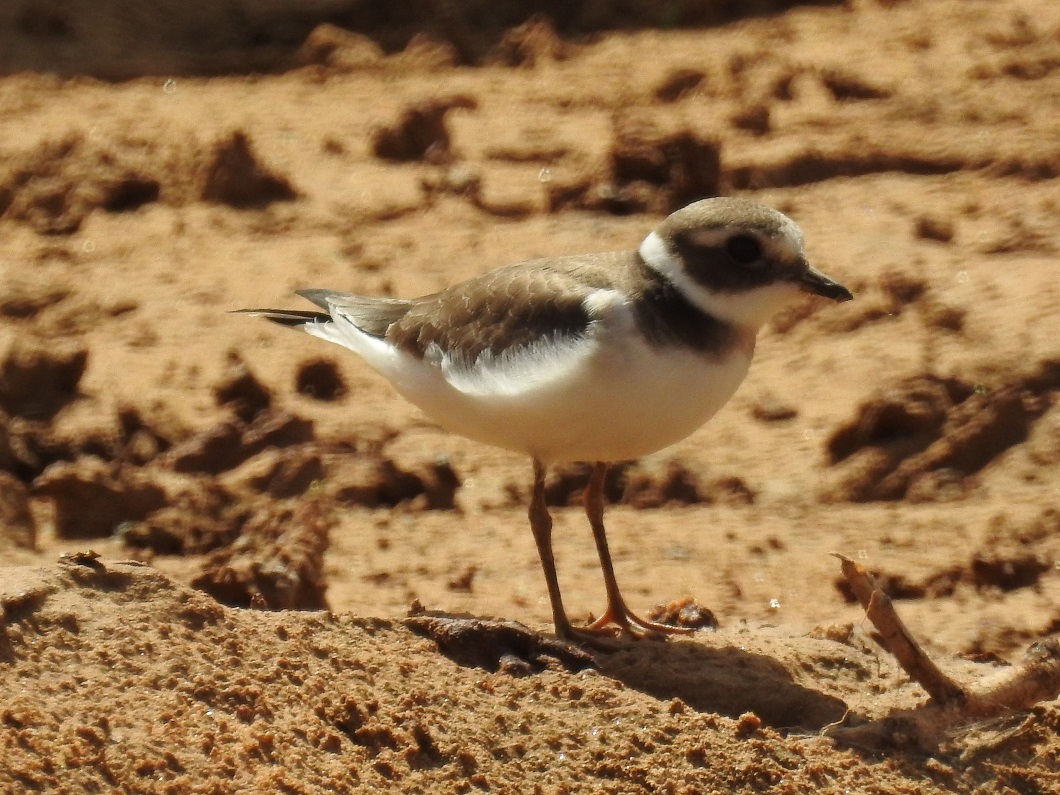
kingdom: Animalia
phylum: Chordata
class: Aves
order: Charadriiformes
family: Charadriidae
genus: Charadrius
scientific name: Charadrius hiaticula
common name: Common ringed plover
